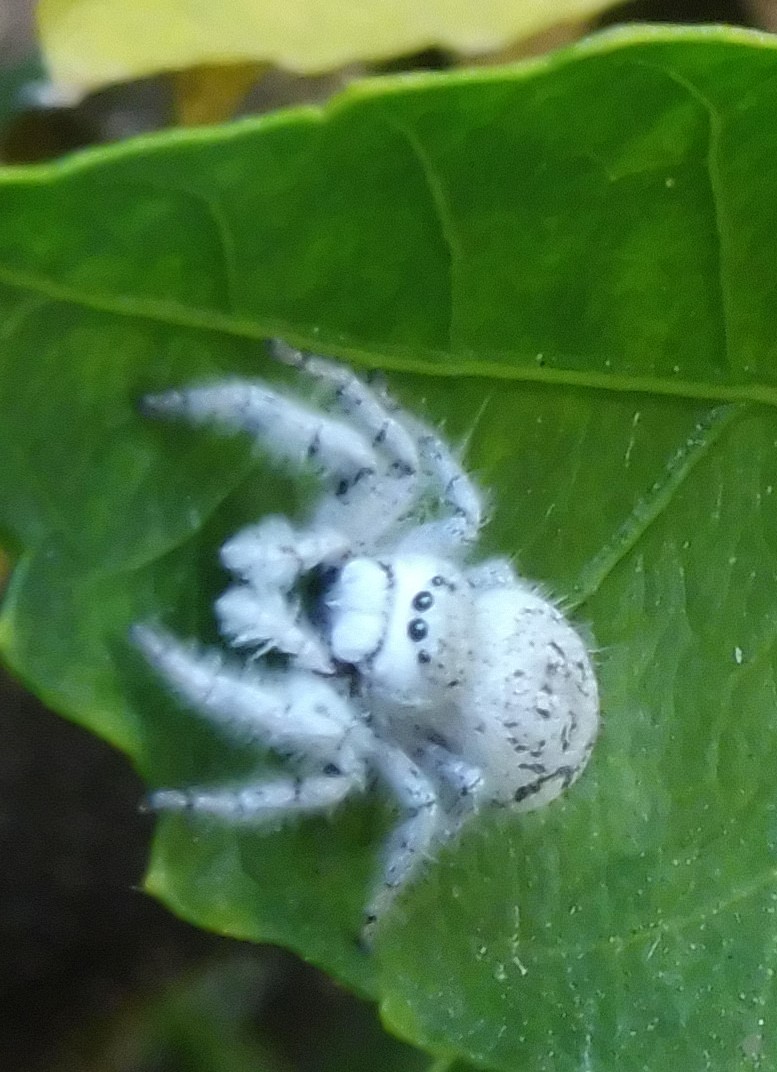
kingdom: Animalia
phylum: Arthropoda
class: Arachnida
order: Araneae
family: Salticidae
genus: Paraphidippus
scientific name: Paraphidippus fartilis
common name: Jumping spiders
